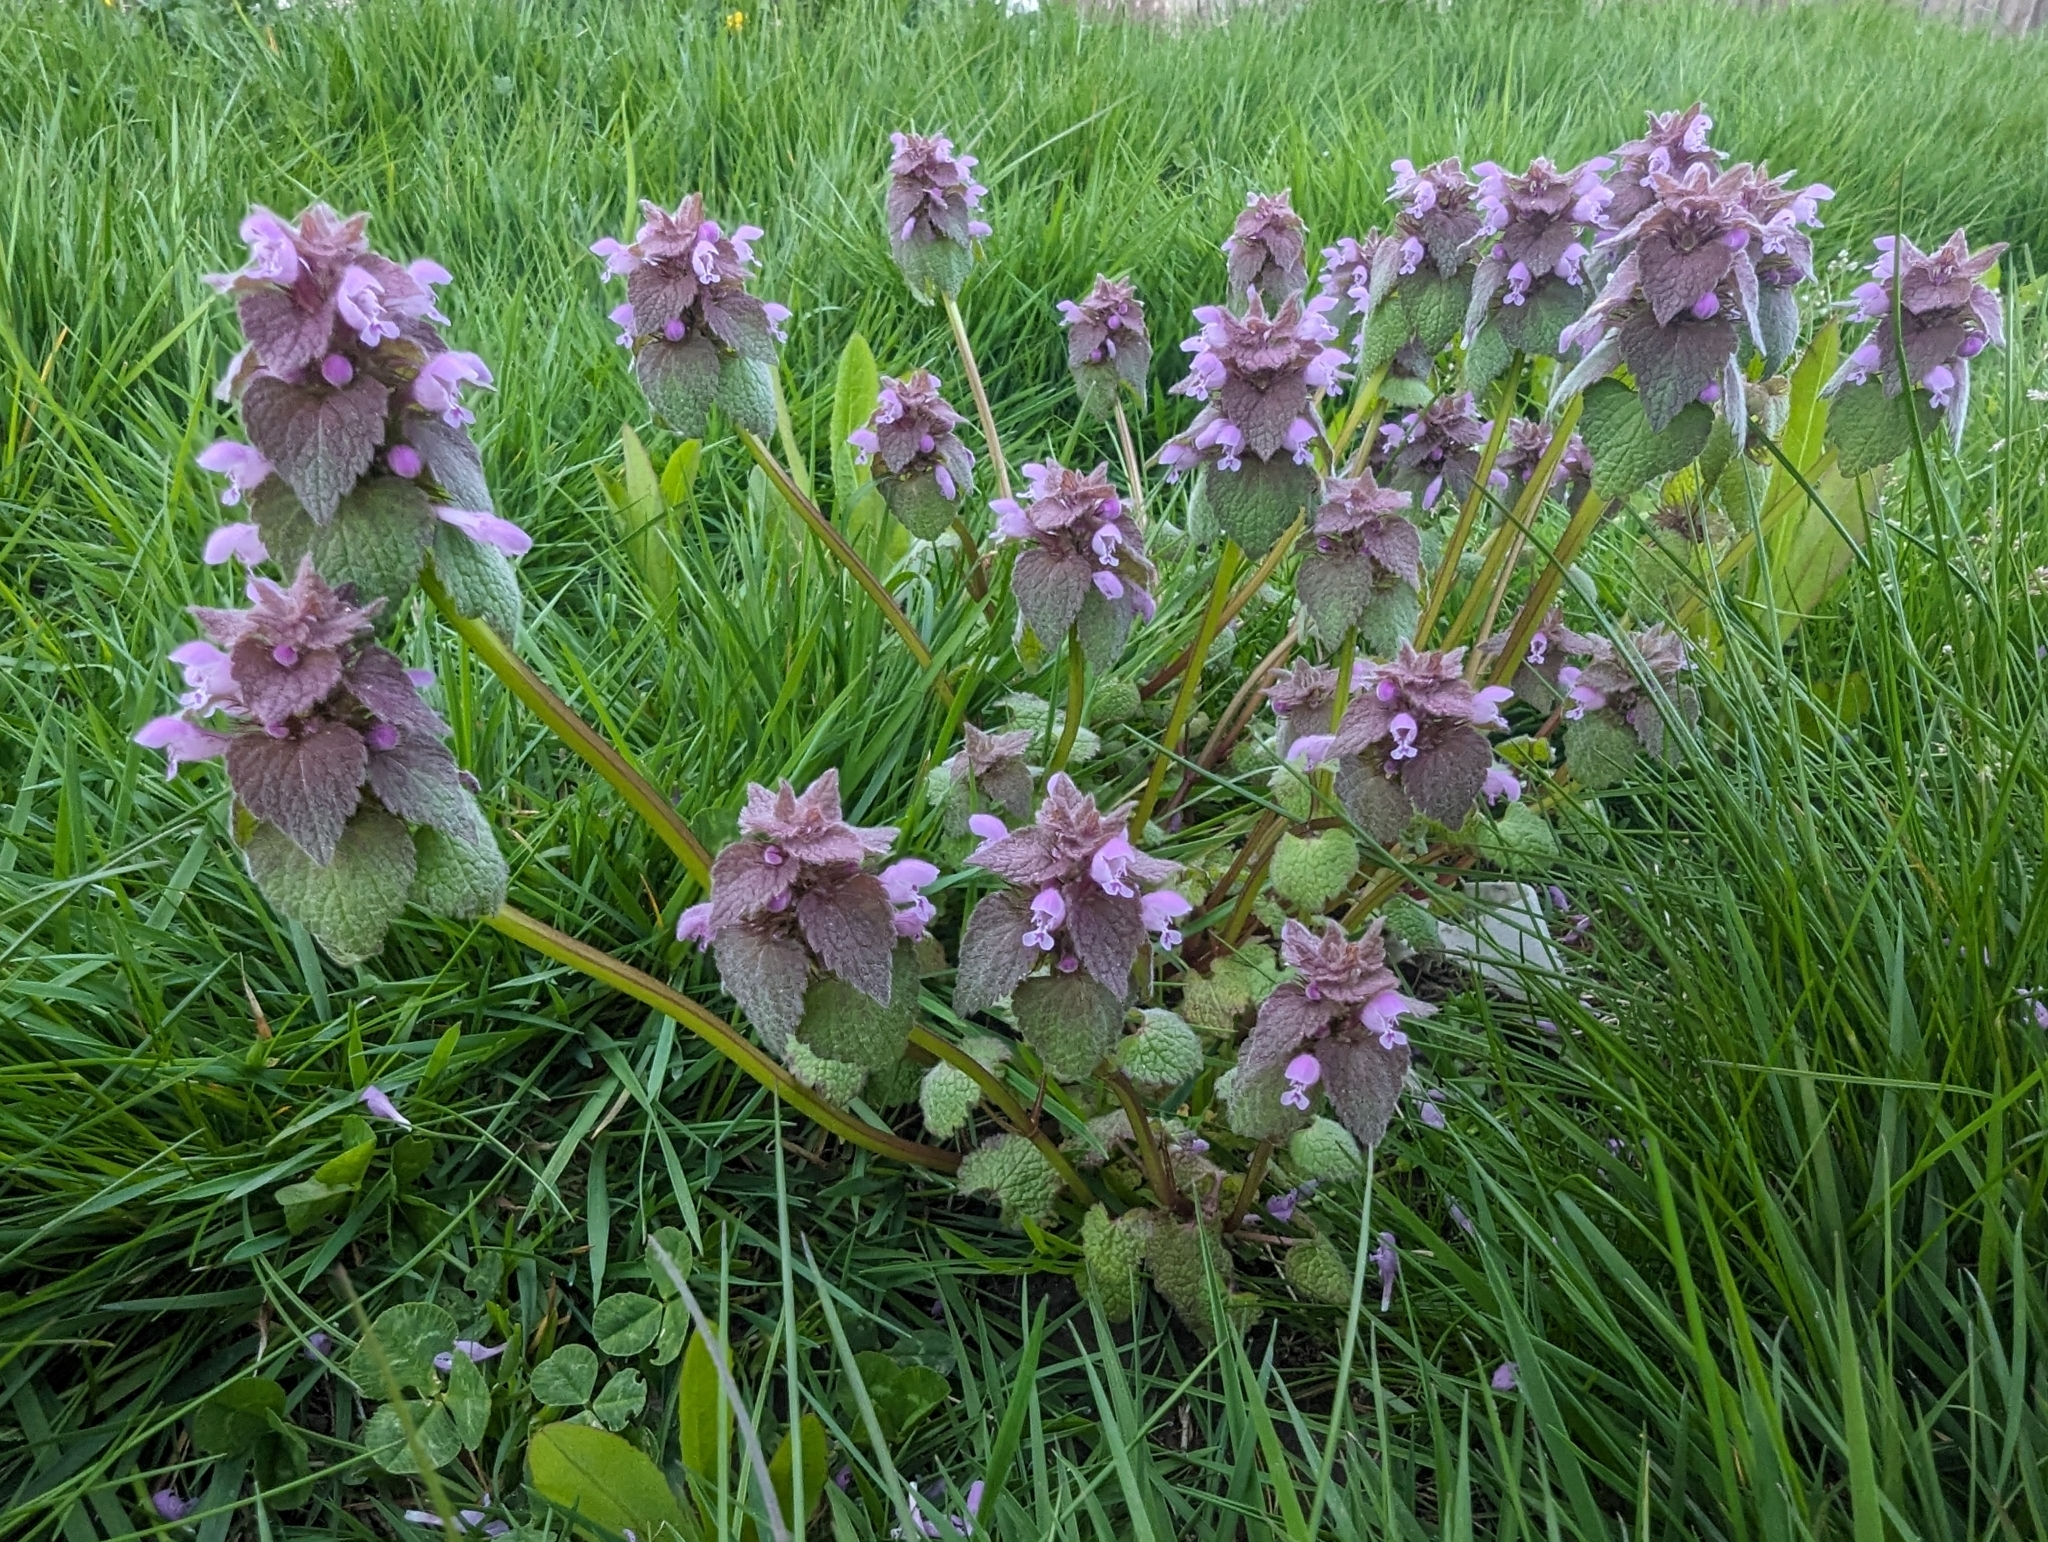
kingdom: Plantae
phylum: Tracheophyta
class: Magnoliopsida
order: Lamiales
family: Lamiaceae
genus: Lamium
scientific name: Lamium purpureum
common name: Red dead-nettle
